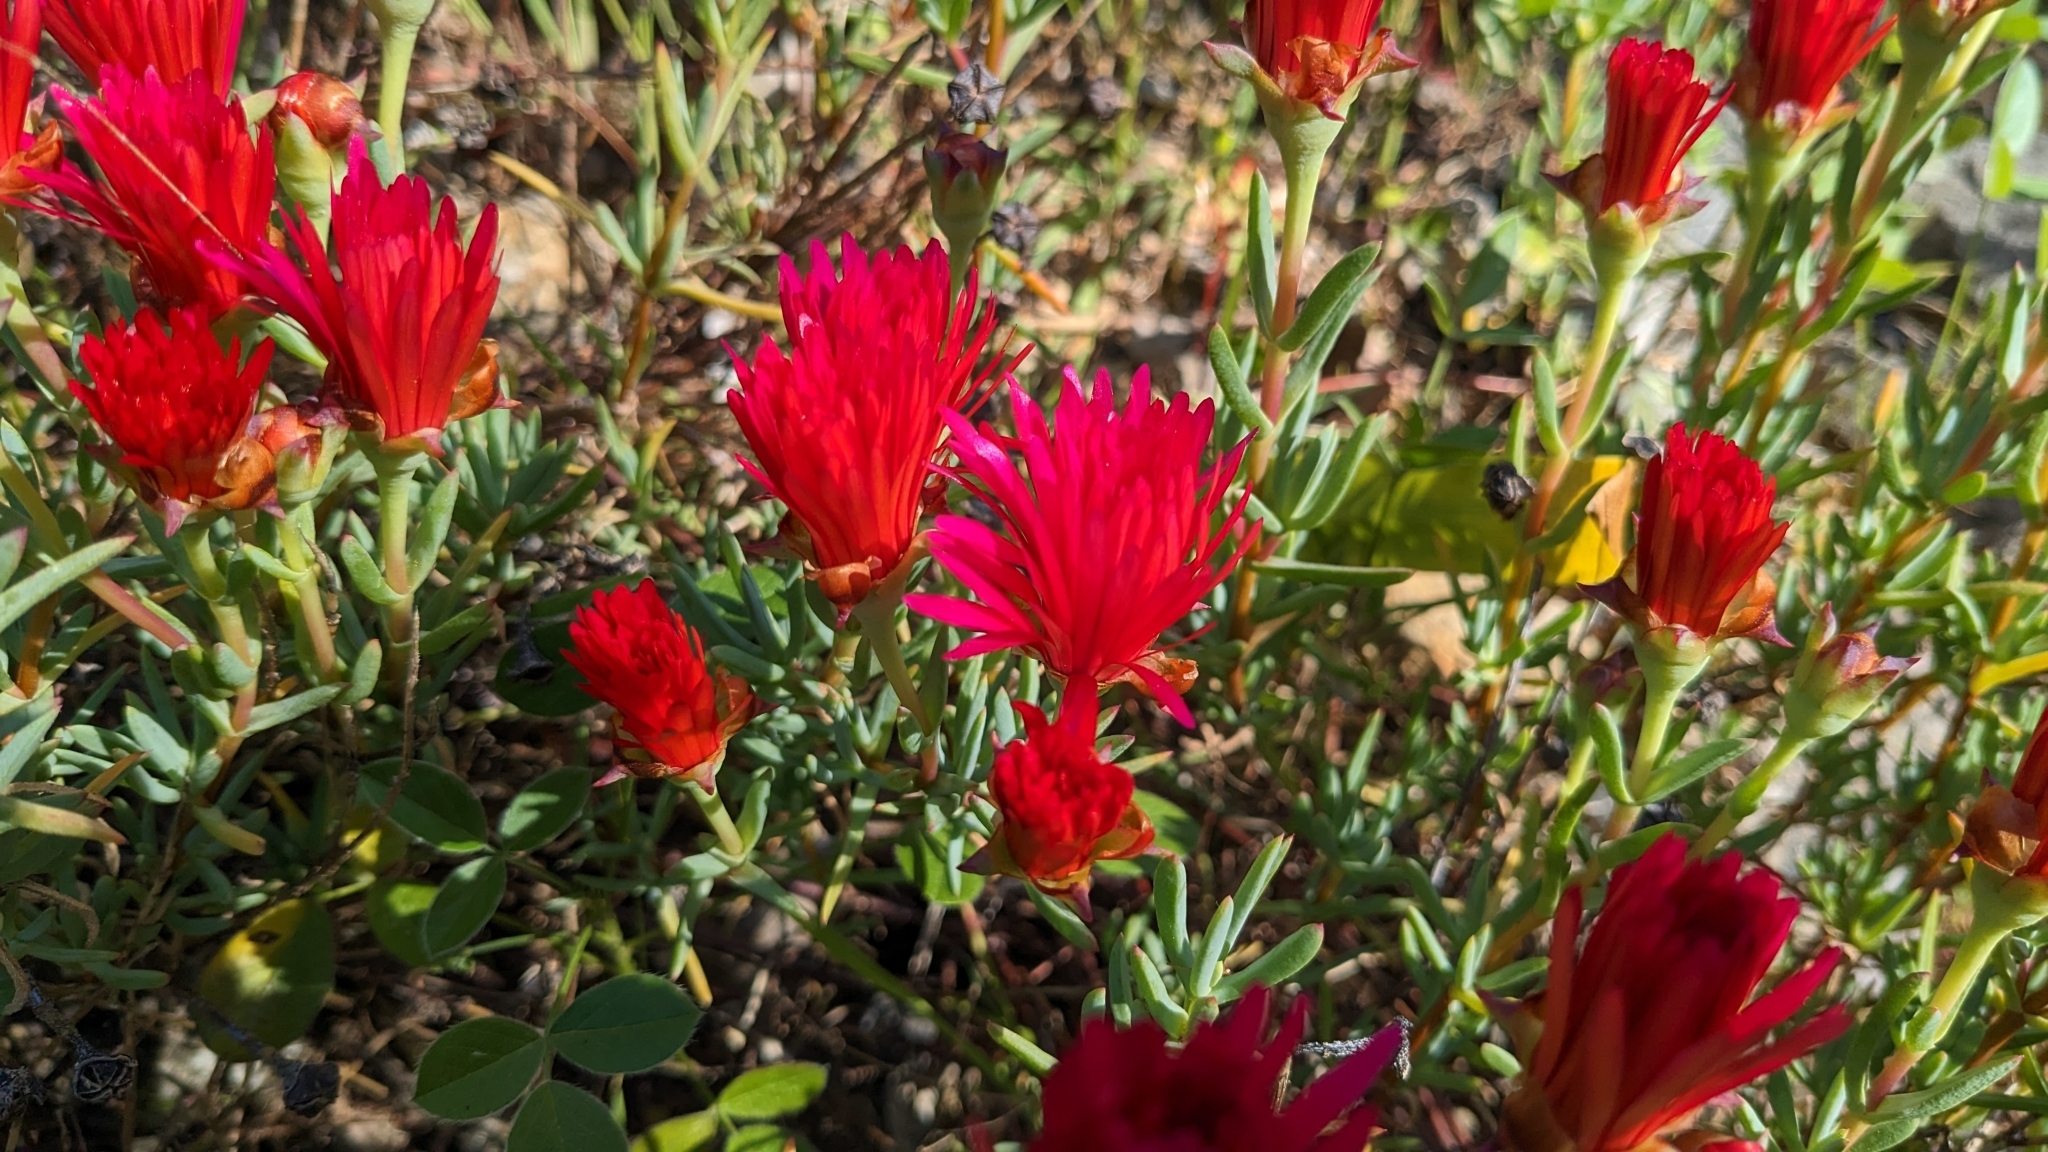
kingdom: Plantae
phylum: Tracheophyta
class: Magnoliopsida
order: Caryophyllales
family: Aizoaceae
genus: Malephora
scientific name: Malephora crocea
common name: Coppery mesemb
